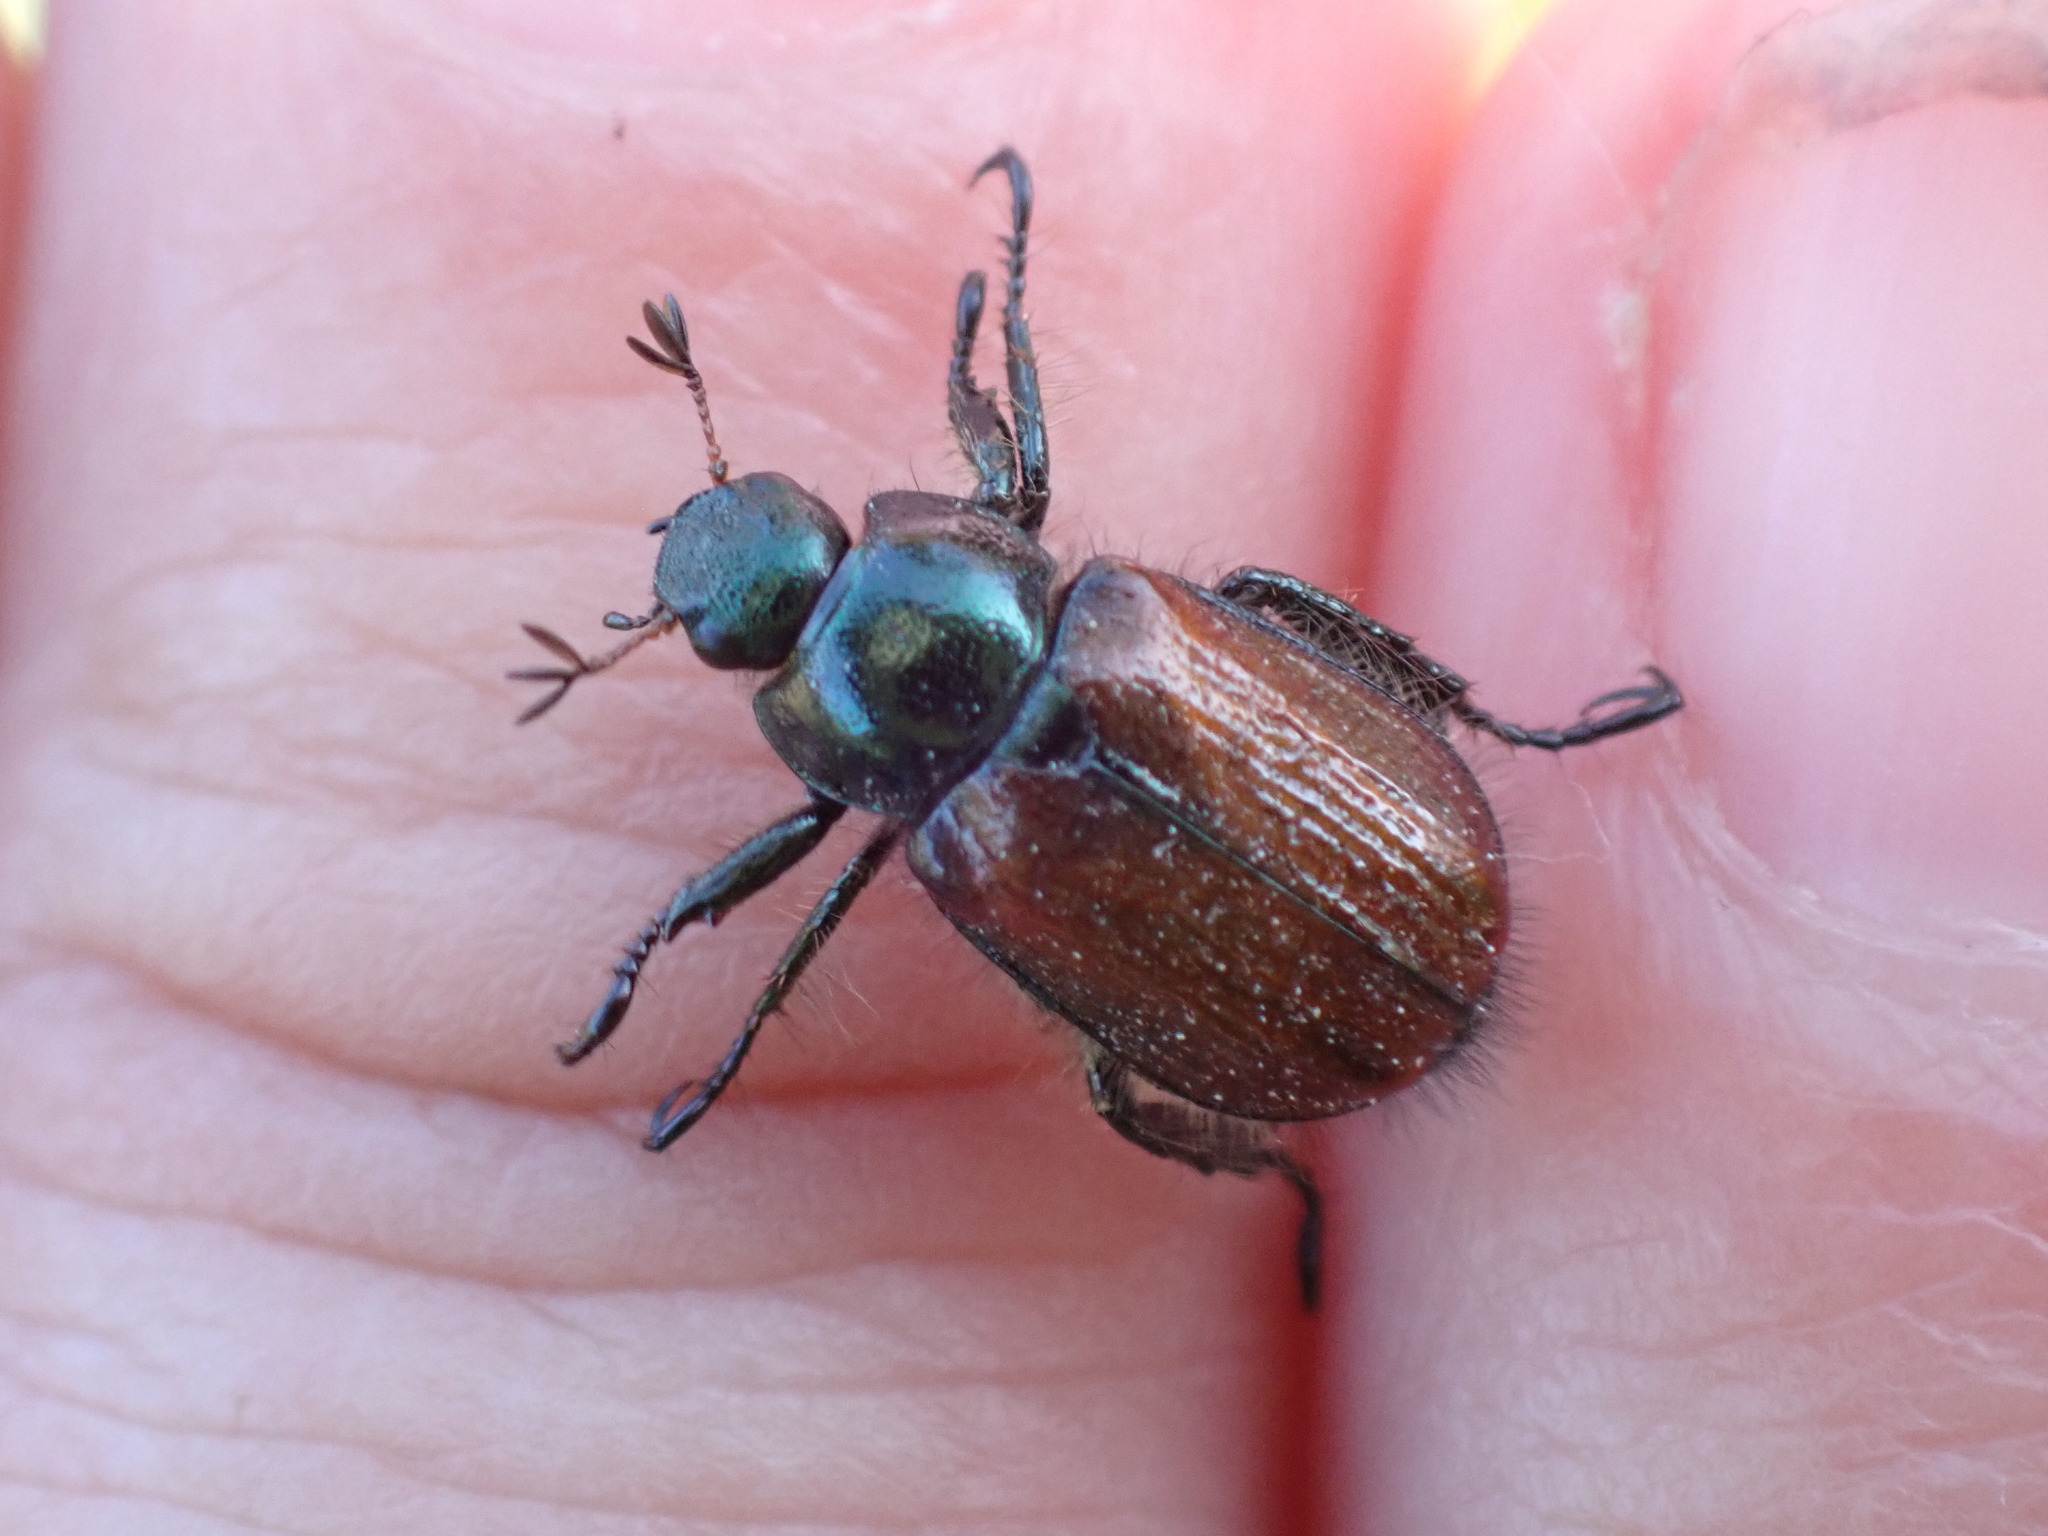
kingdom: Animalia
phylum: Arthropoda
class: Insecta
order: Coleoptera
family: Scarabaeidae
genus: Phyllopertha
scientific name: Phyllopertha horticola
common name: Garden chafer
